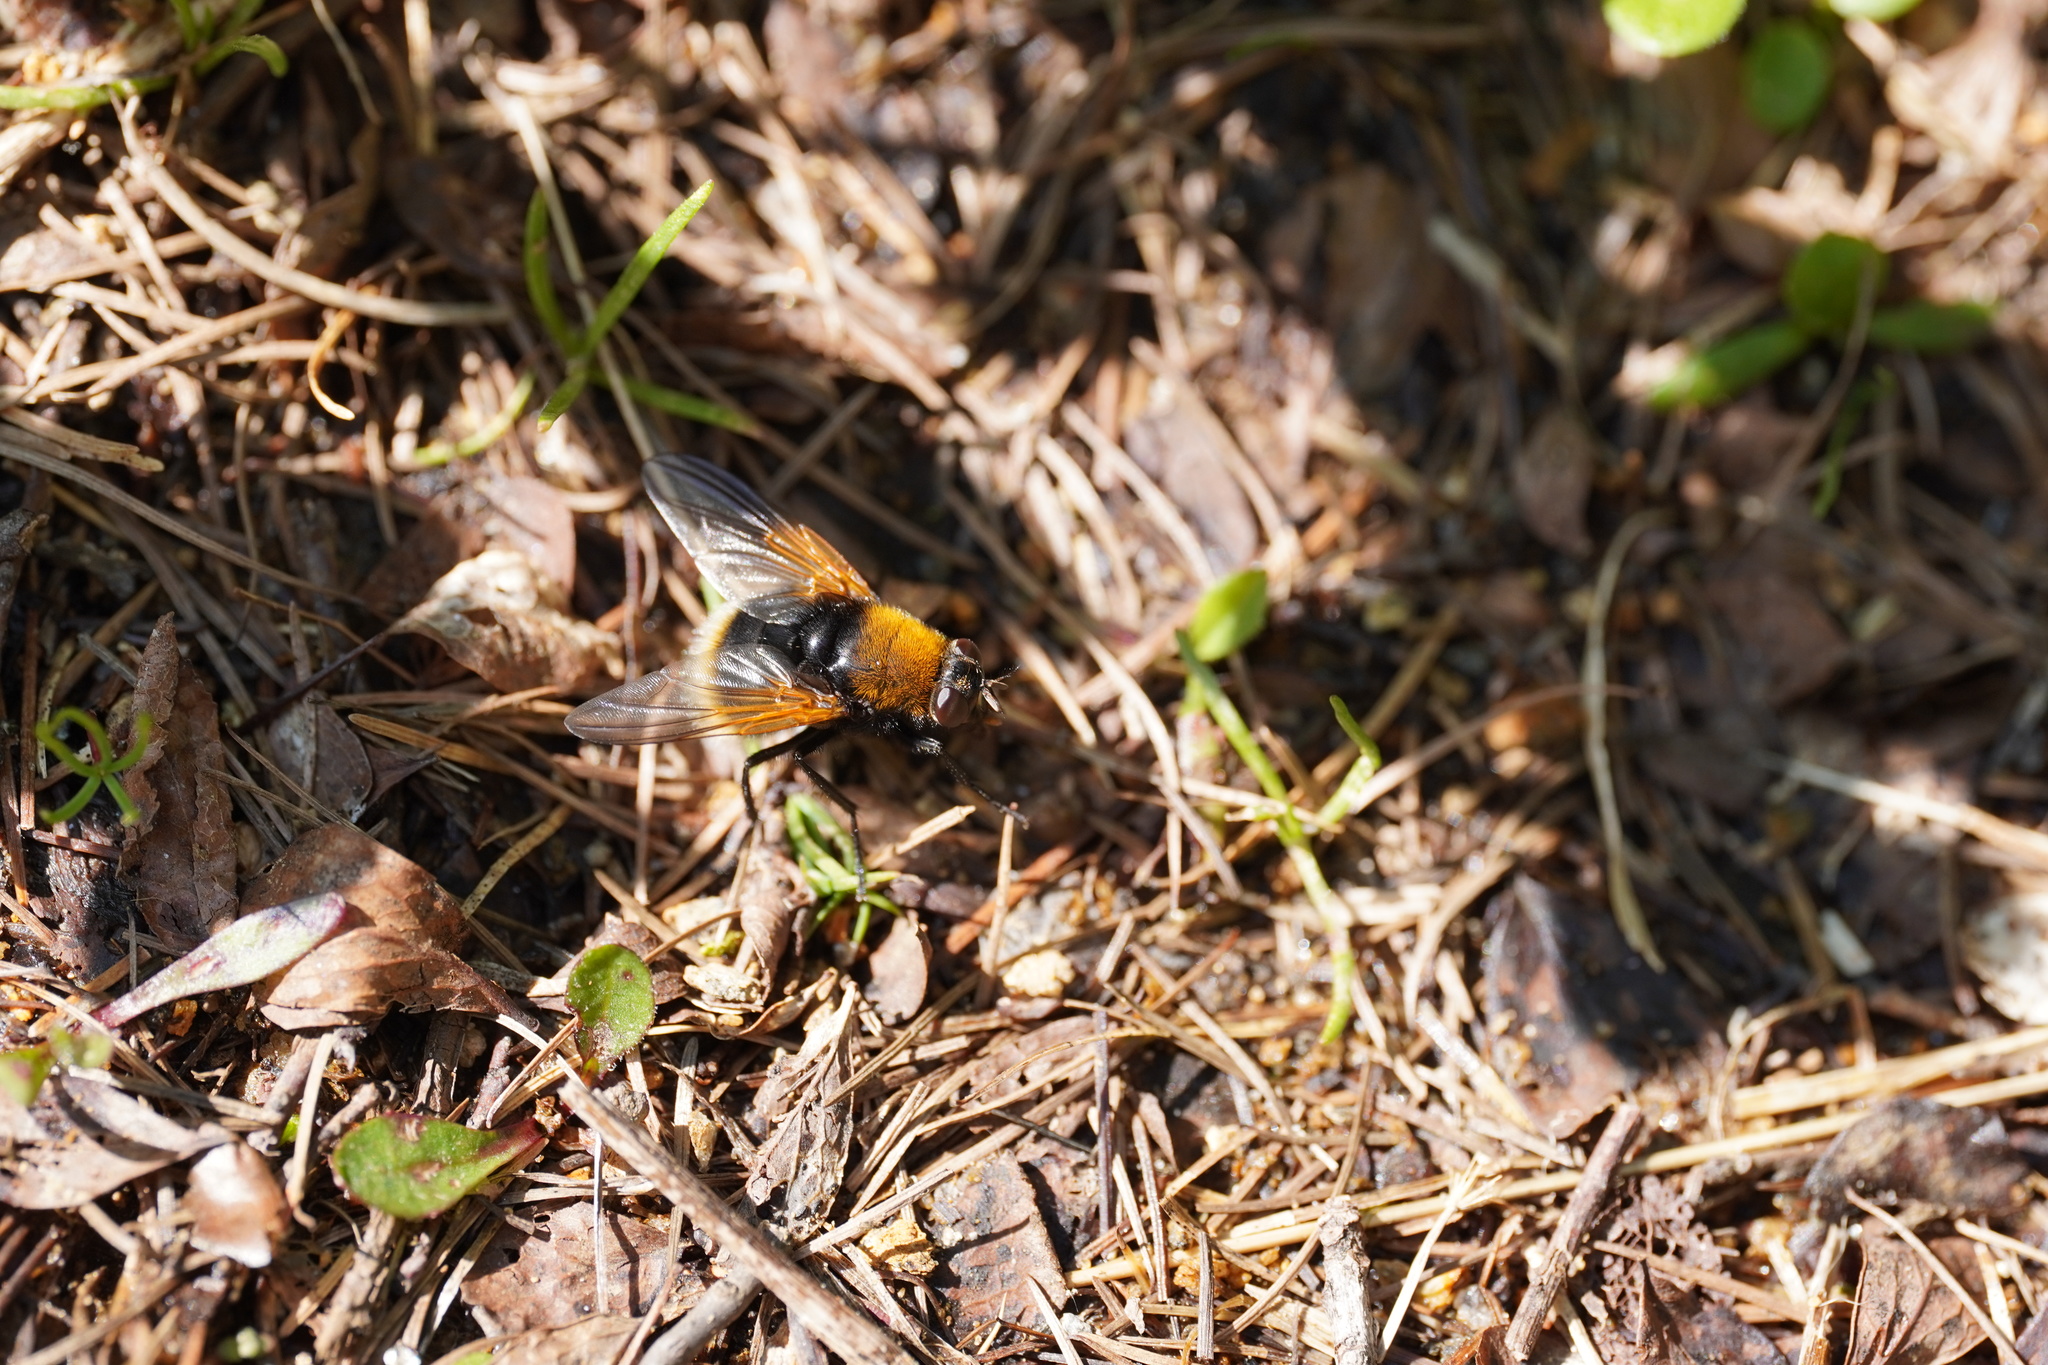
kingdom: Animalia
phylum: Arthropoda
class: Insecta
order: Diptera
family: Muscidae
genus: Mesembrina
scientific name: Mesembrina mystacea
